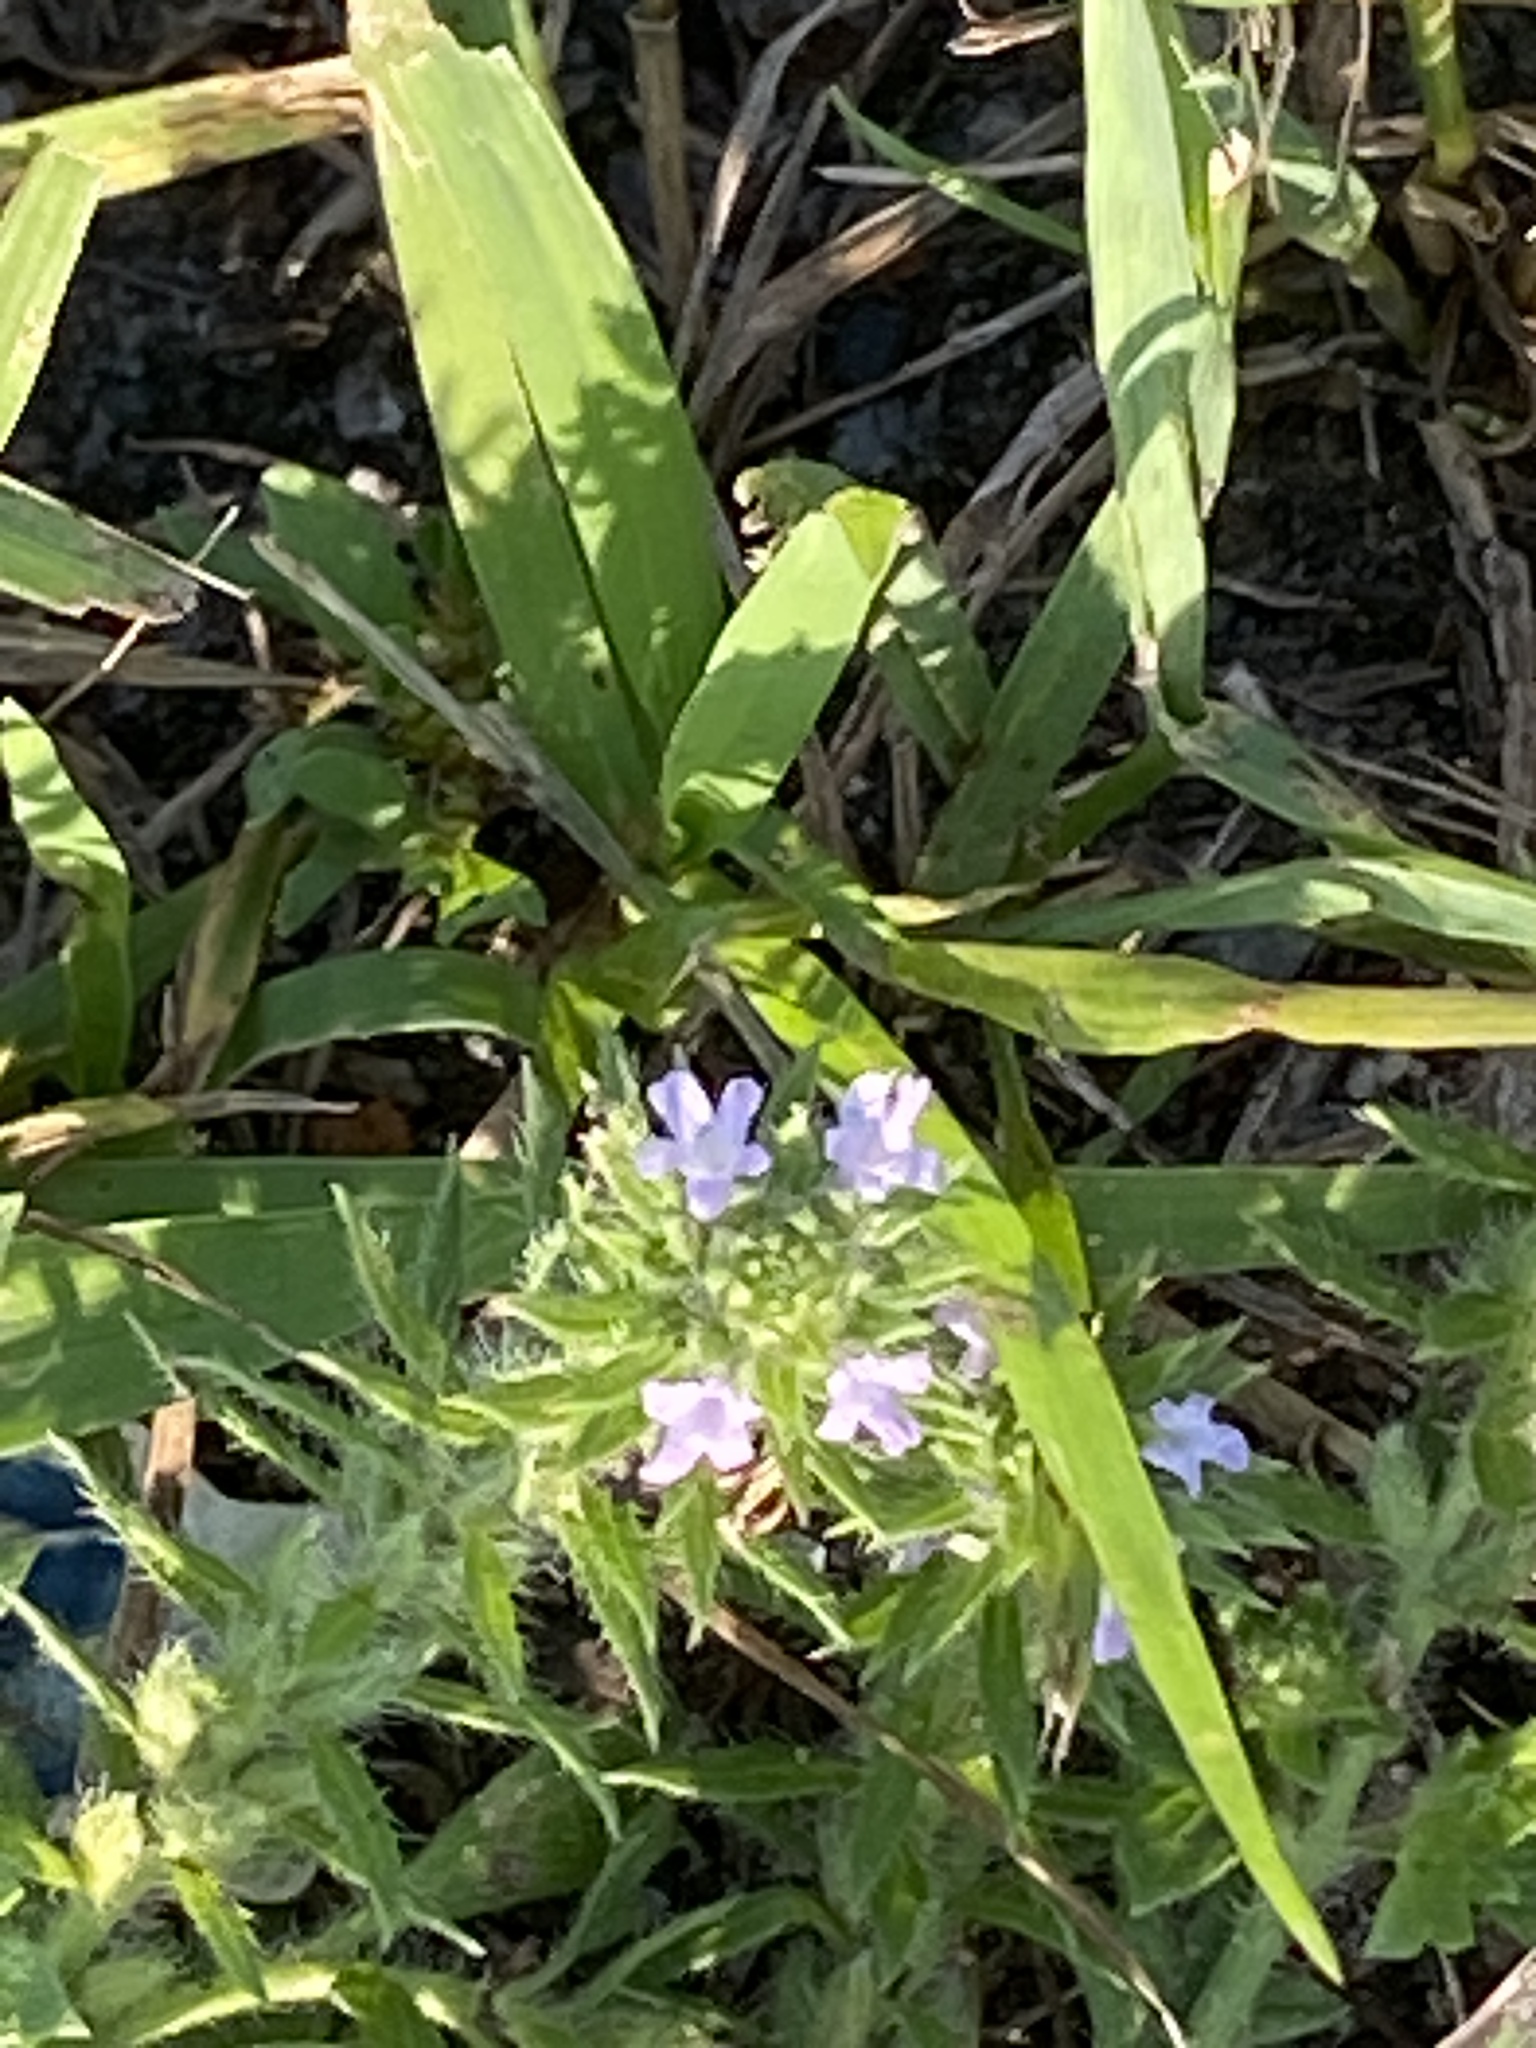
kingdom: Plantae
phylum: Tracheophyta
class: Magnoliopsida
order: Lamiales
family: Verbenaceae
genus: Verbena
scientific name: Verbena bracteata
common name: Bracted vervain
